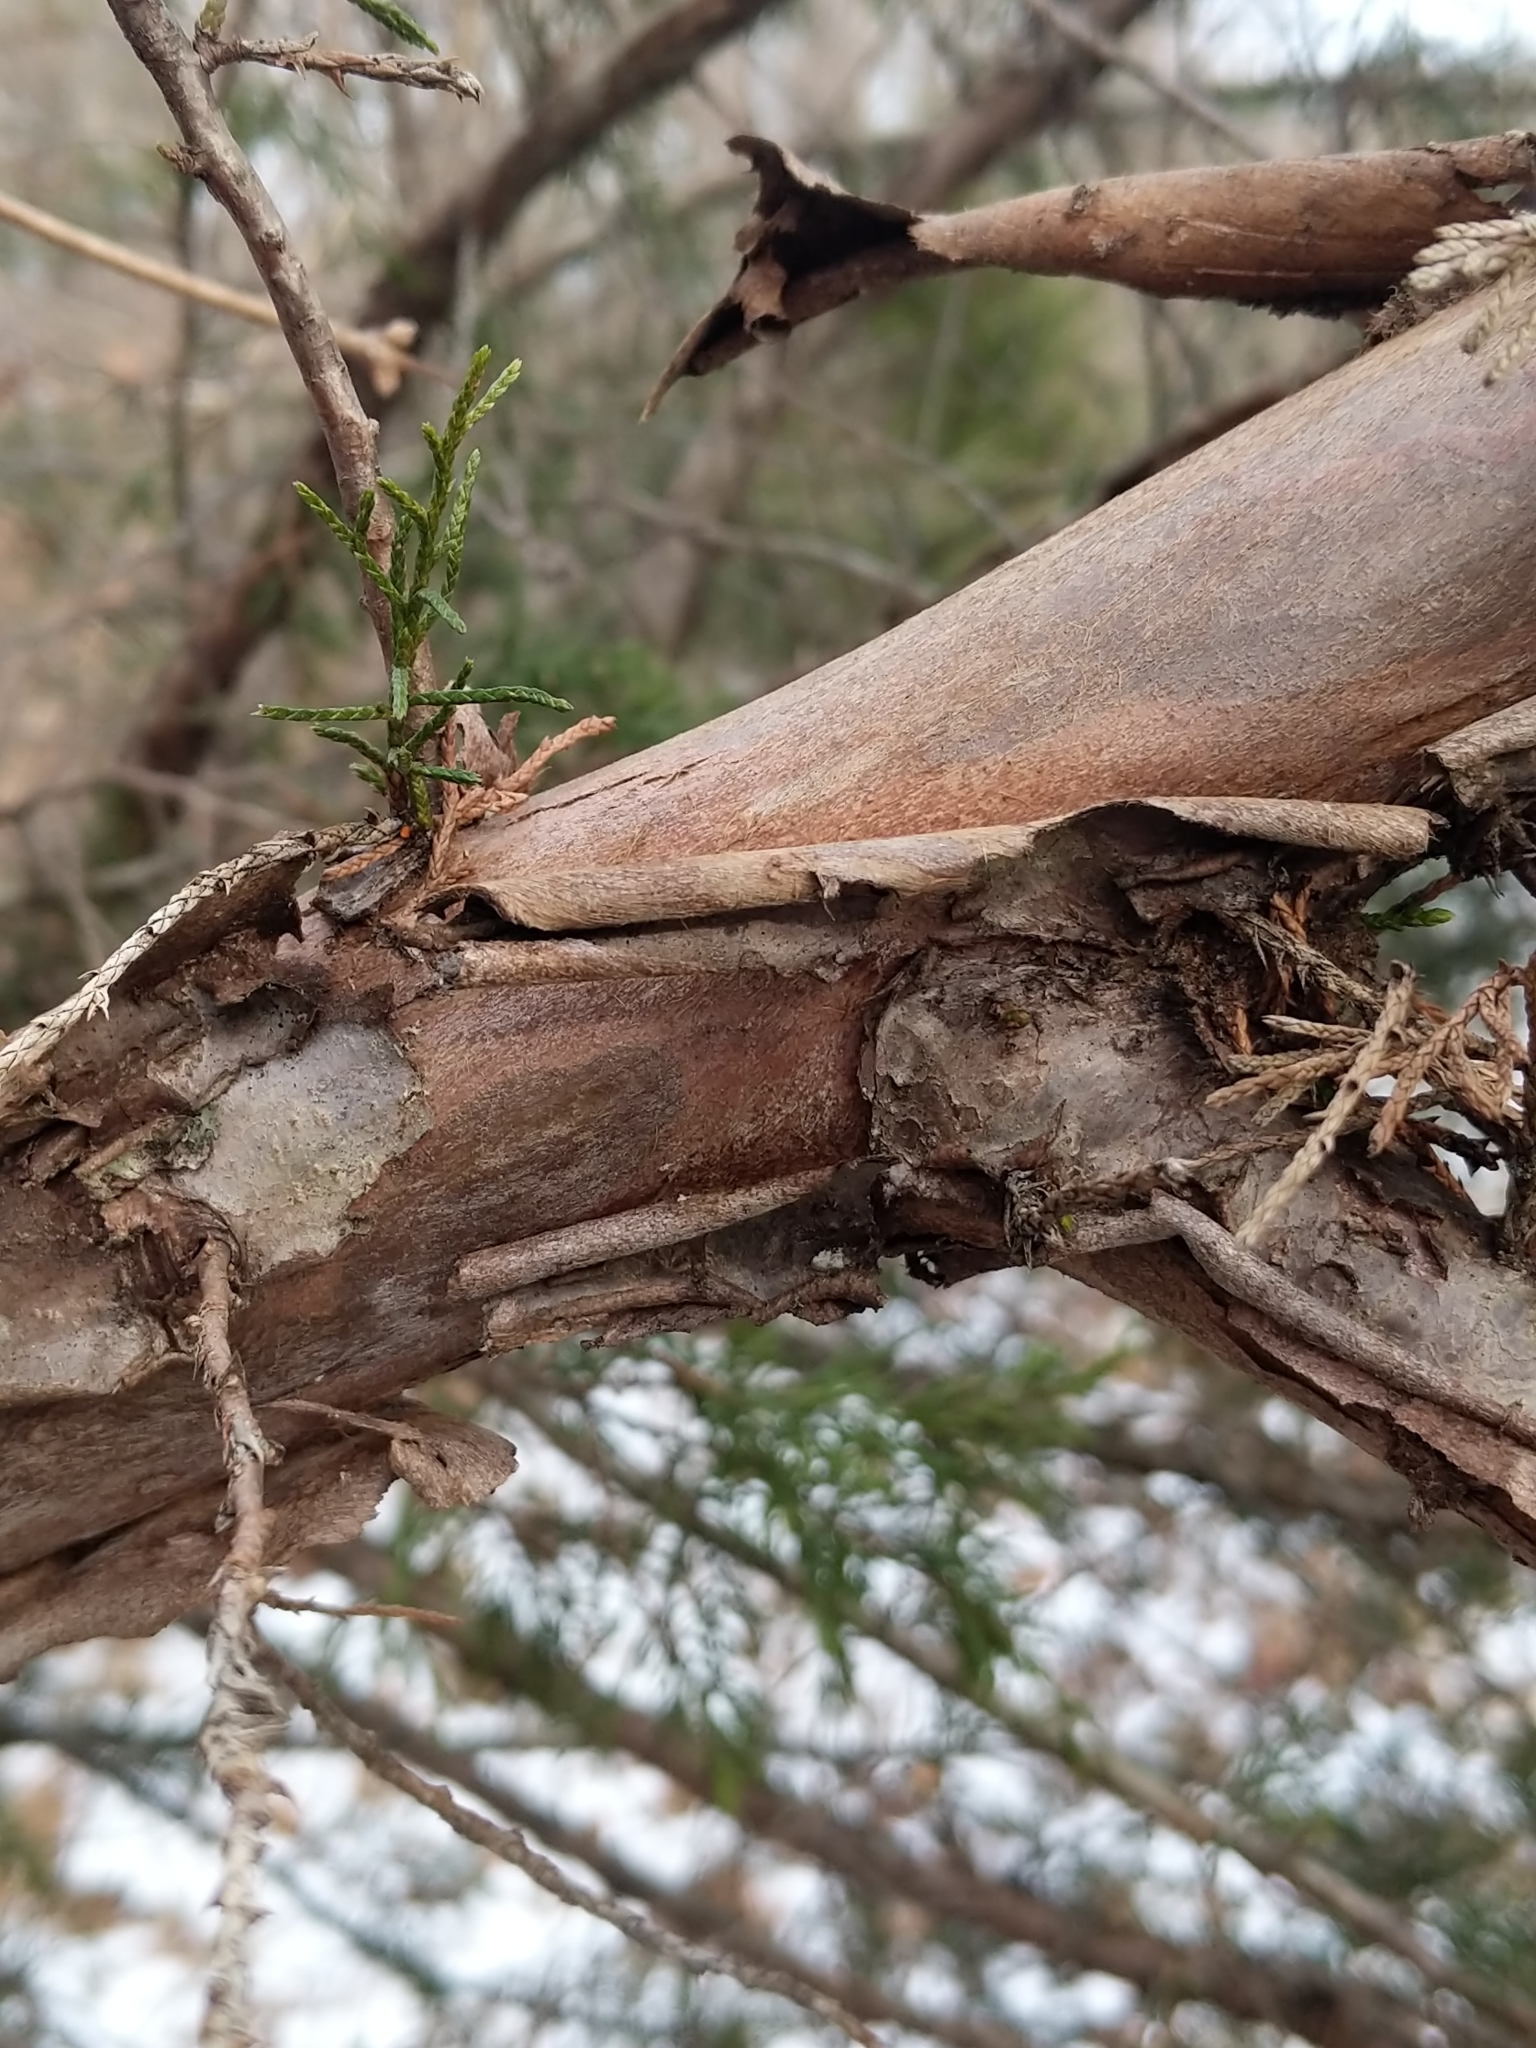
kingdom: Plantae
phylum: Tracheophyta
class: Pinopsida
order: Pinales
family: Cupressaceae
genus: Juniperus
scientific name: Juniperus virginiana
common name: Red juniper
